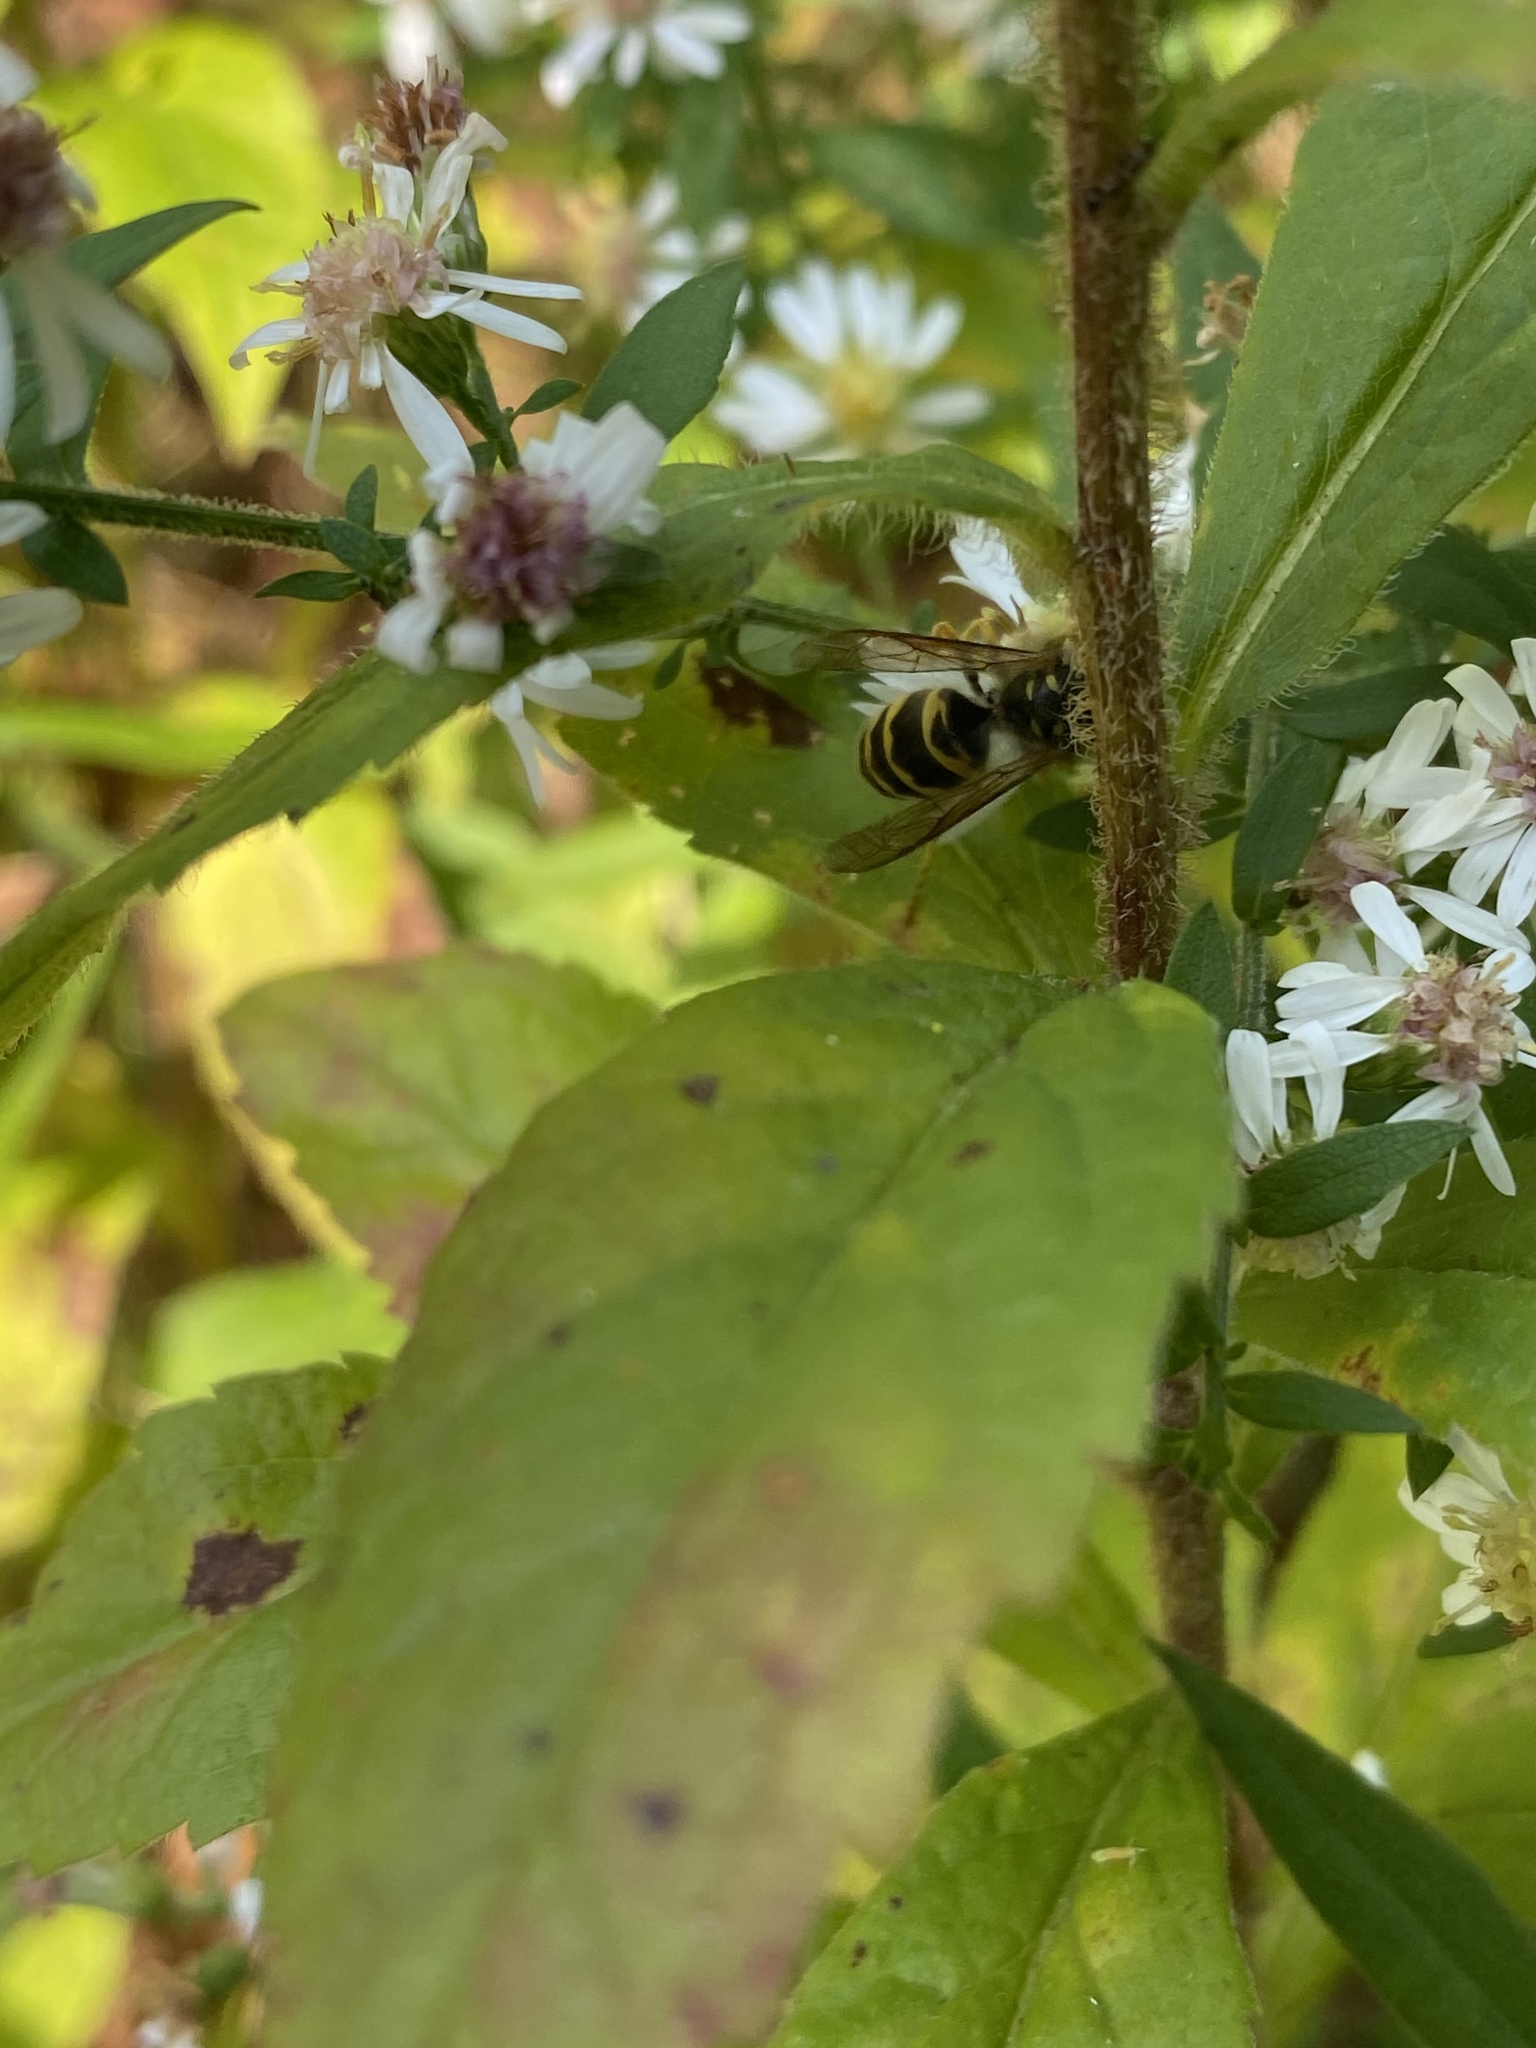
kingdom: Animalia
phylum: Arthropoda
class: Insecta
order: Hymenoptera
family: Vespidae
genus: Vespula
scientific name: Vespula
